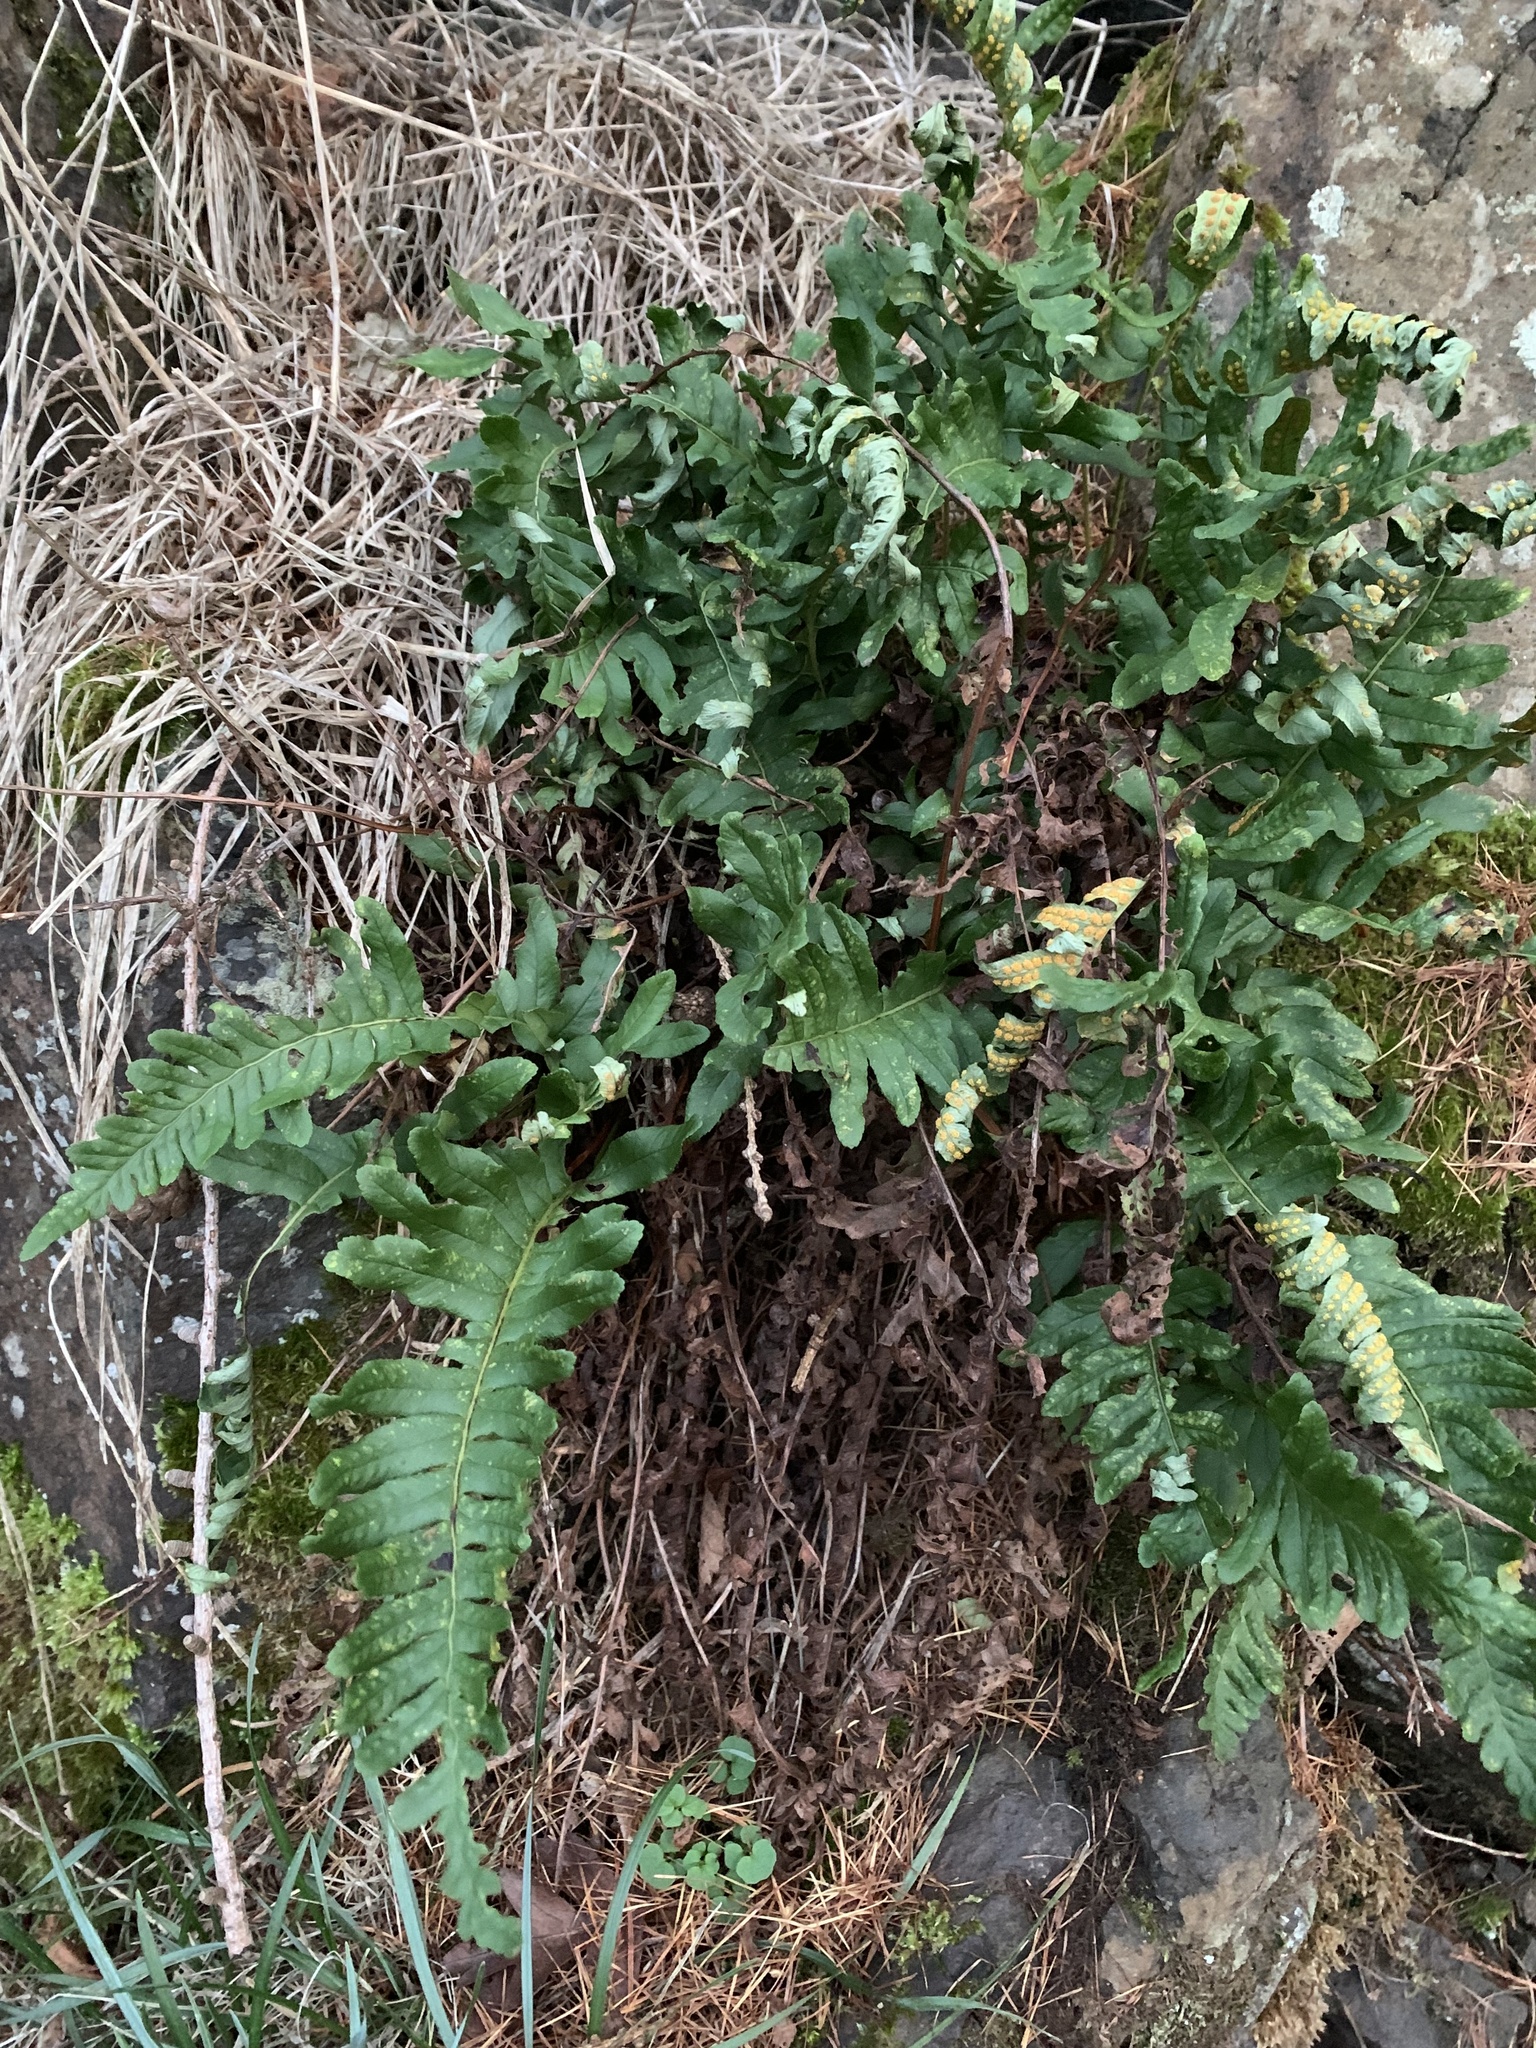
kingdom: Plantae
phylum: Tracheophyta
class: Polypodiopsida
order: Polypodiales
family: Polypodiaceae
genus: Polypodium
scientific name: Polypodium
